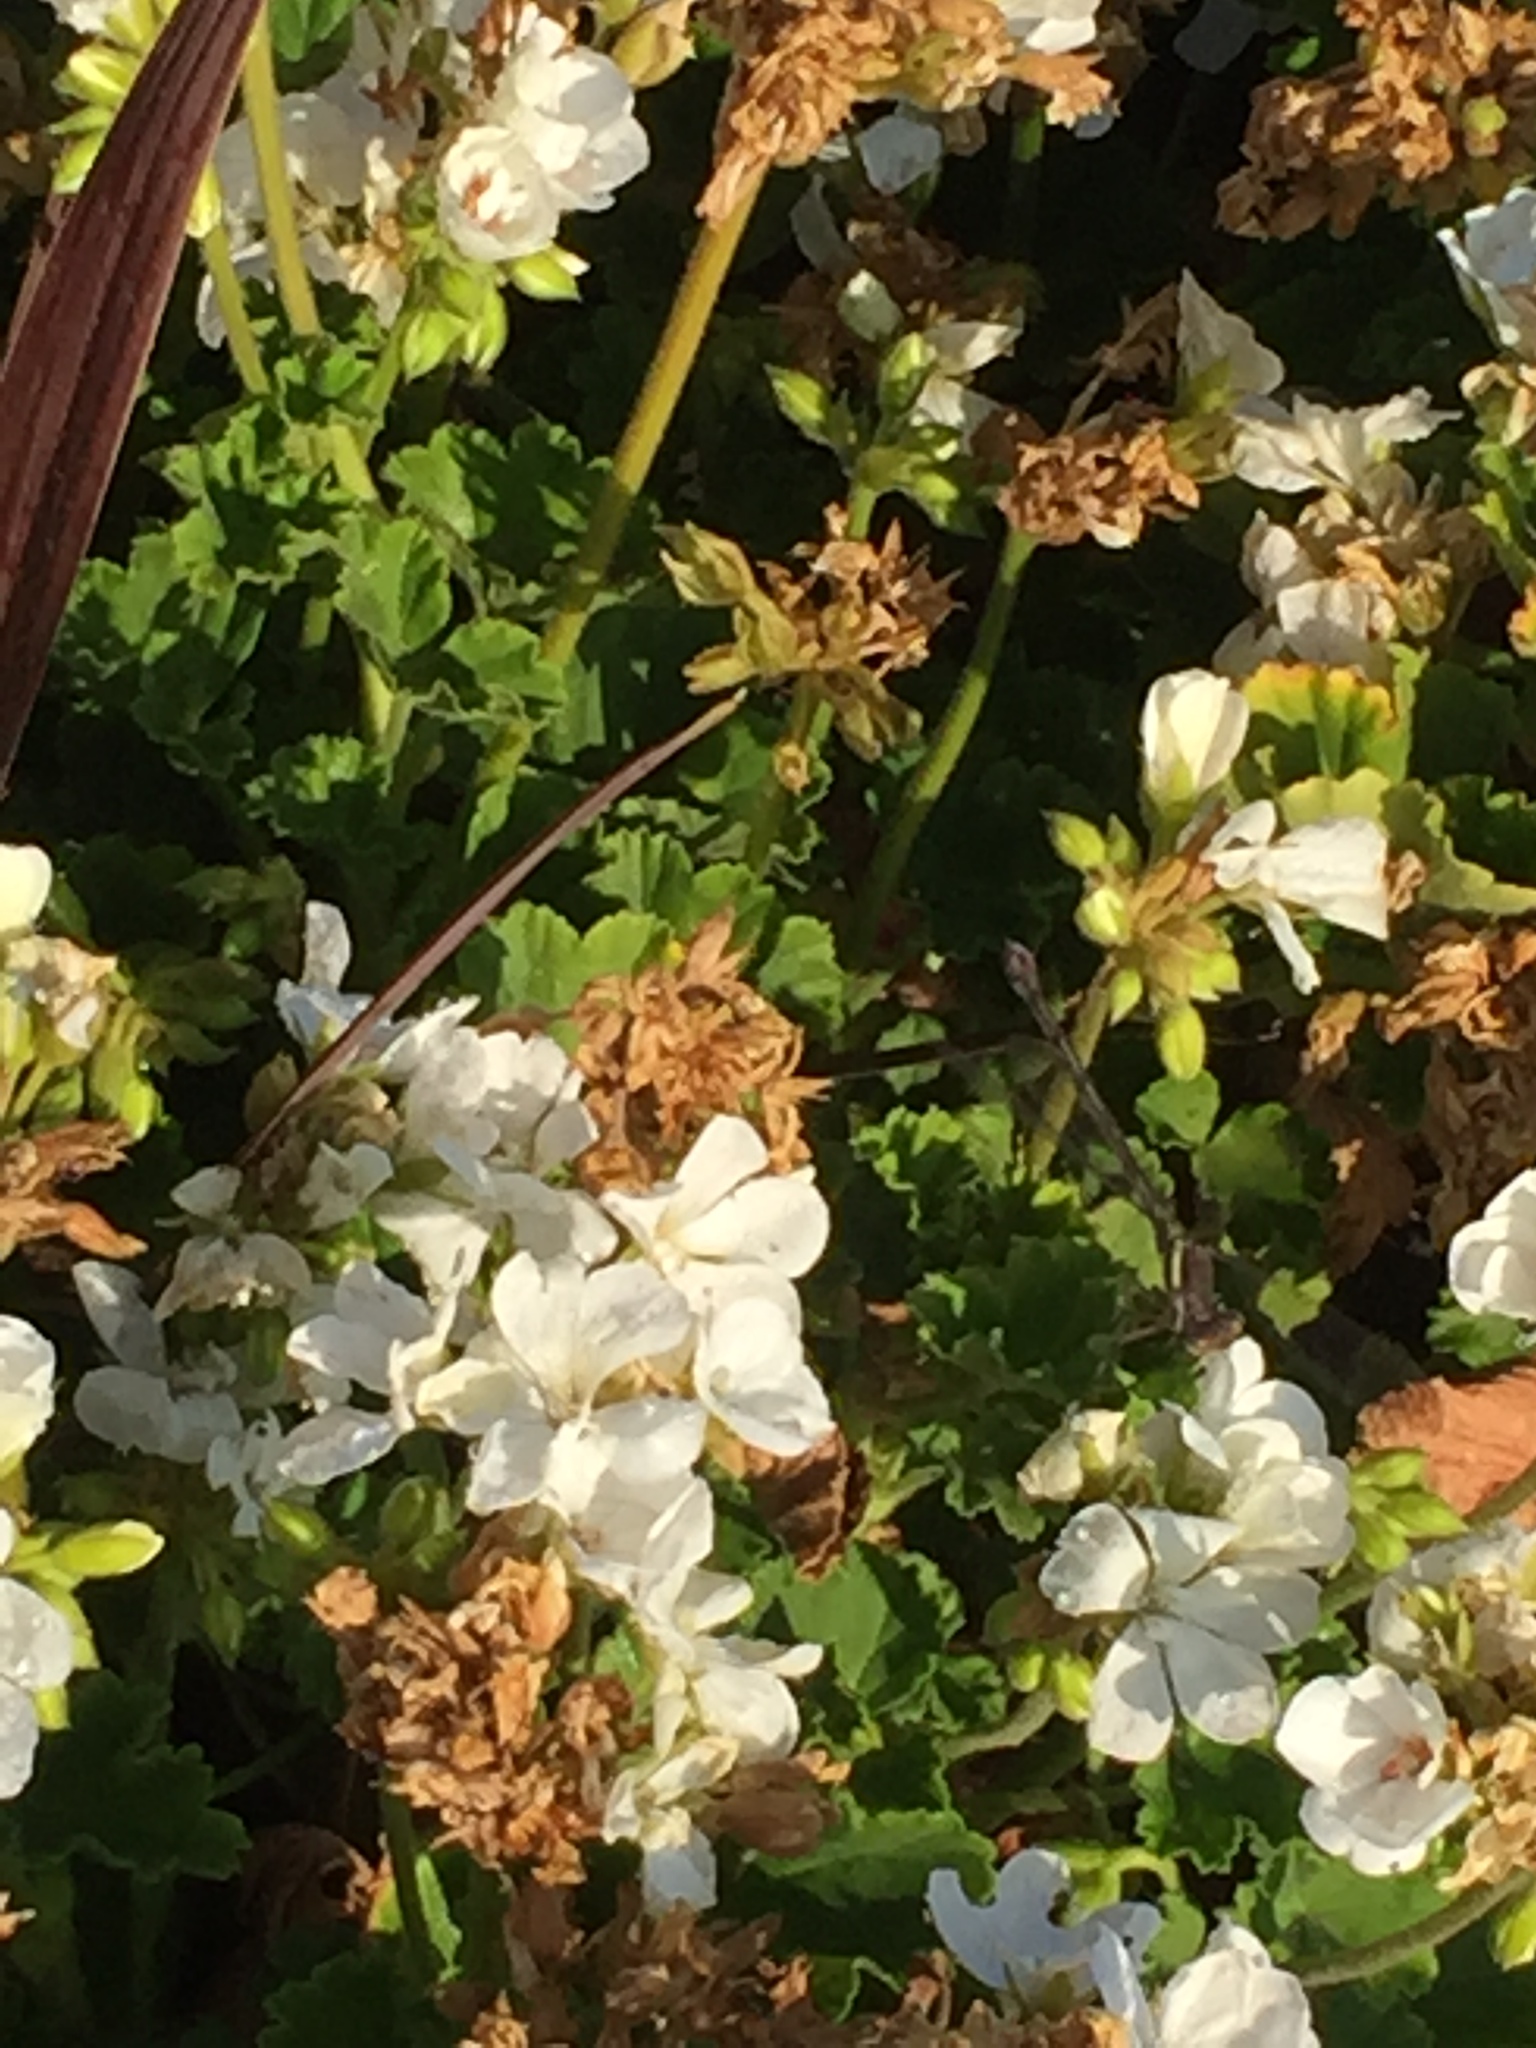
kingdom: Animalia
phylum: Arthropoda
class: Insecta
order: Odonata
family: Lestidae
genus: Archilestes
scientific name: Archilestes grandis
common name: Great spreadwing
